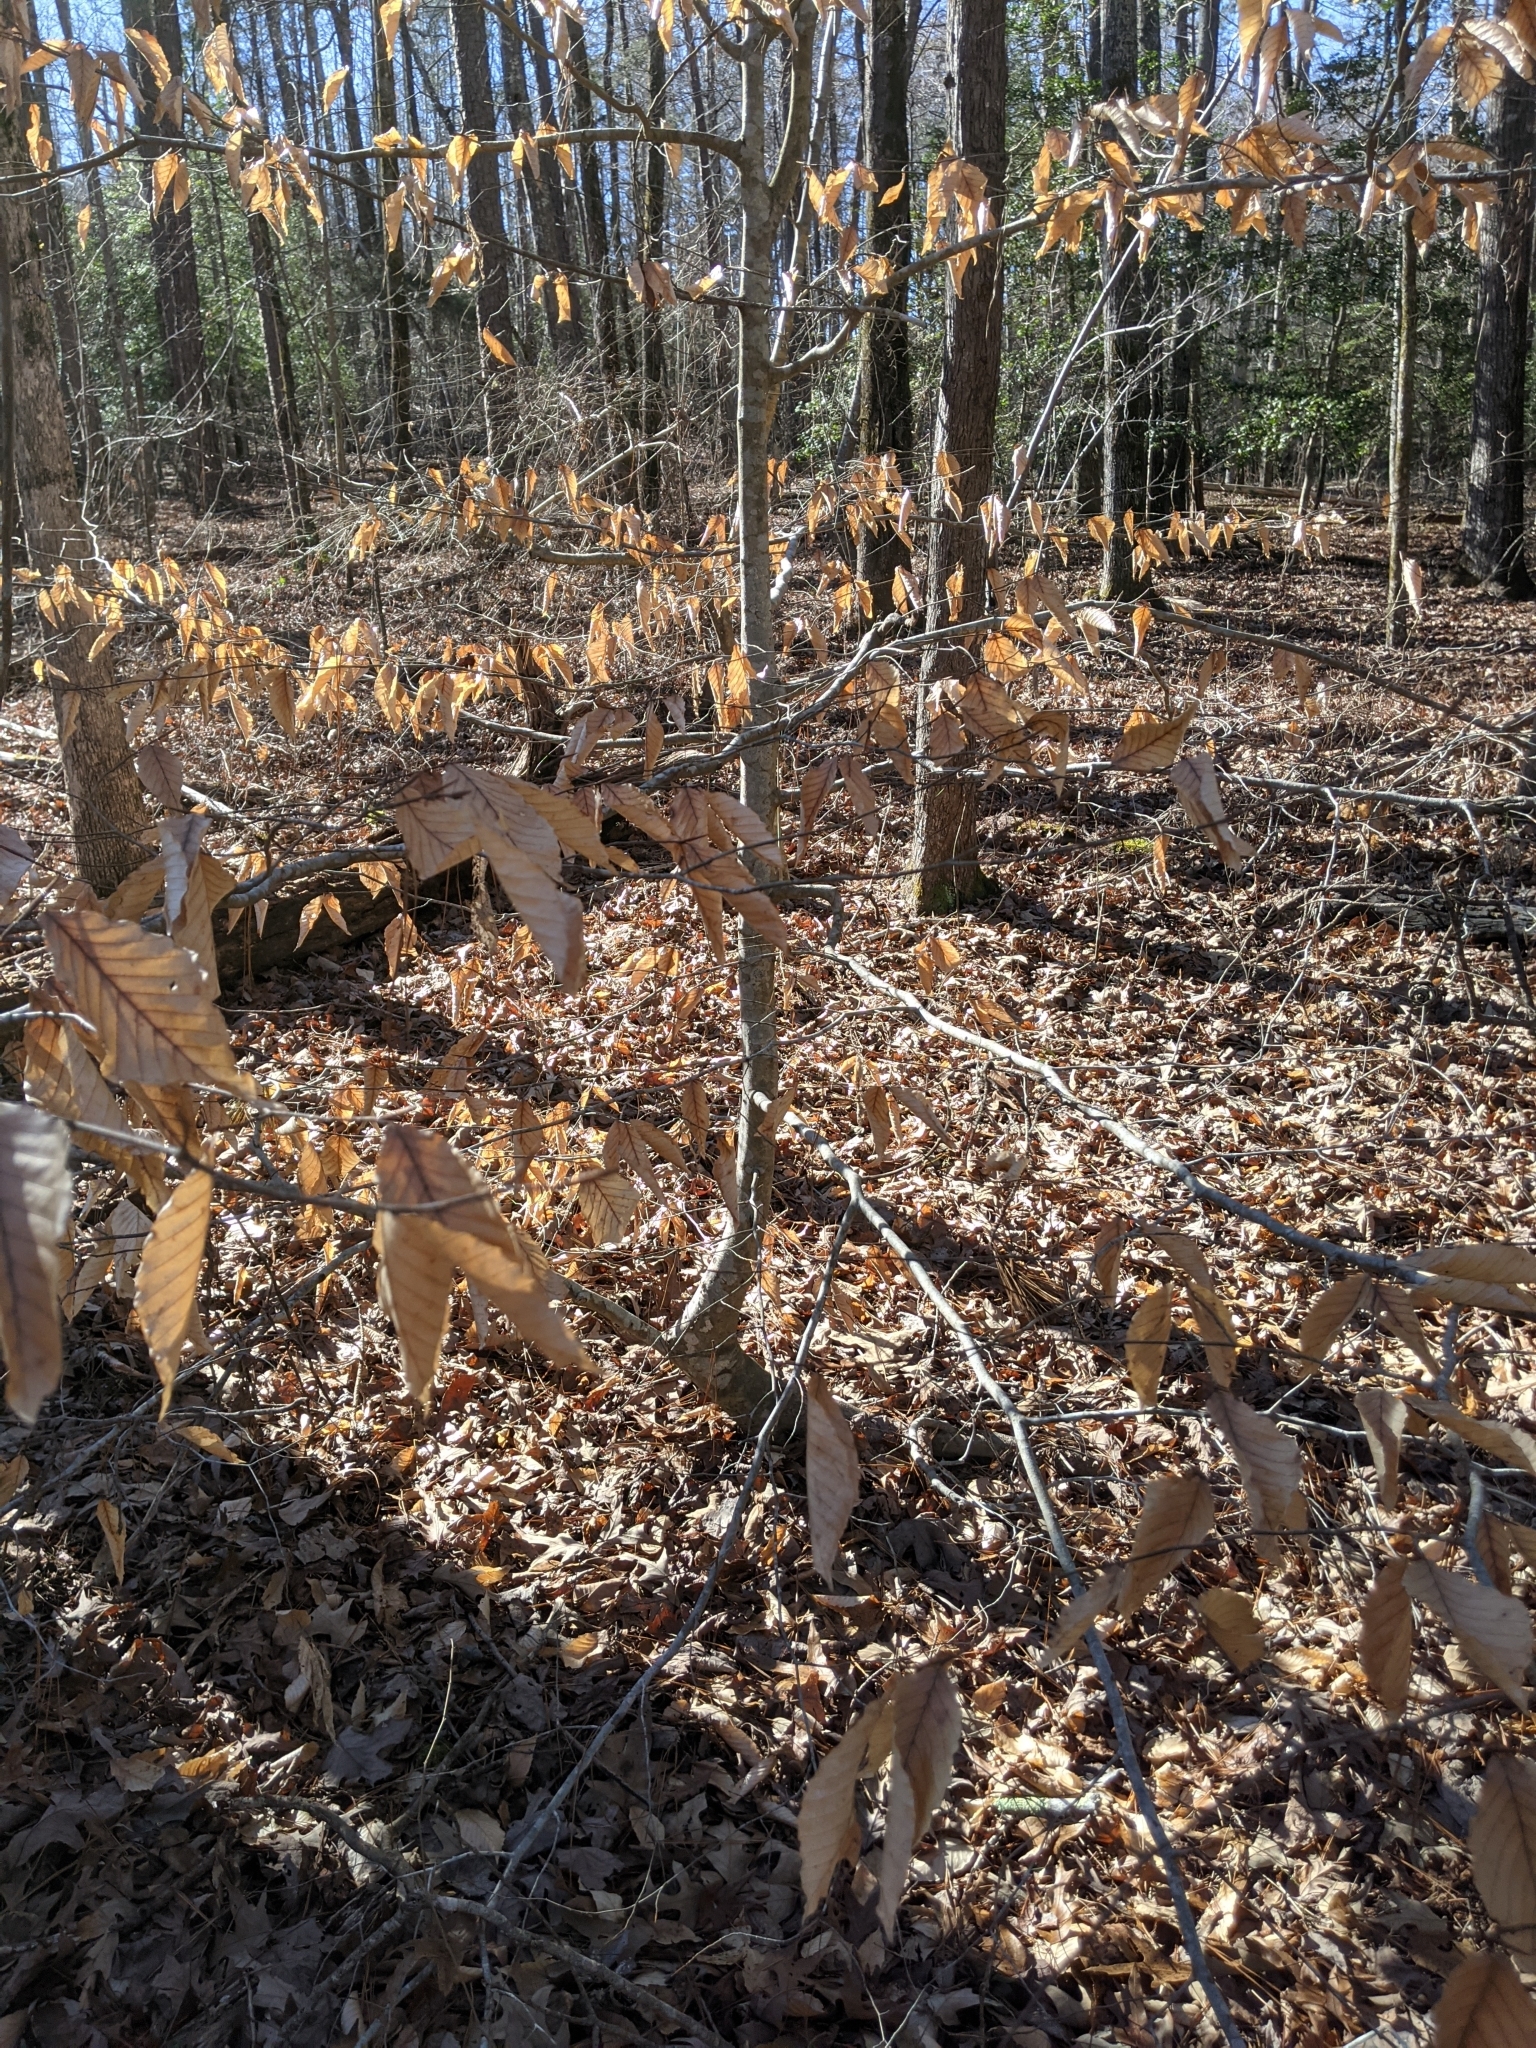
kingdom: Plantae
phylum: Tracheophyta
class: Magnoliopsida
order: Fagales
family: Fagaceae
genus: Fagus
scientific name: Fagus grandifolia
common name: American beech
